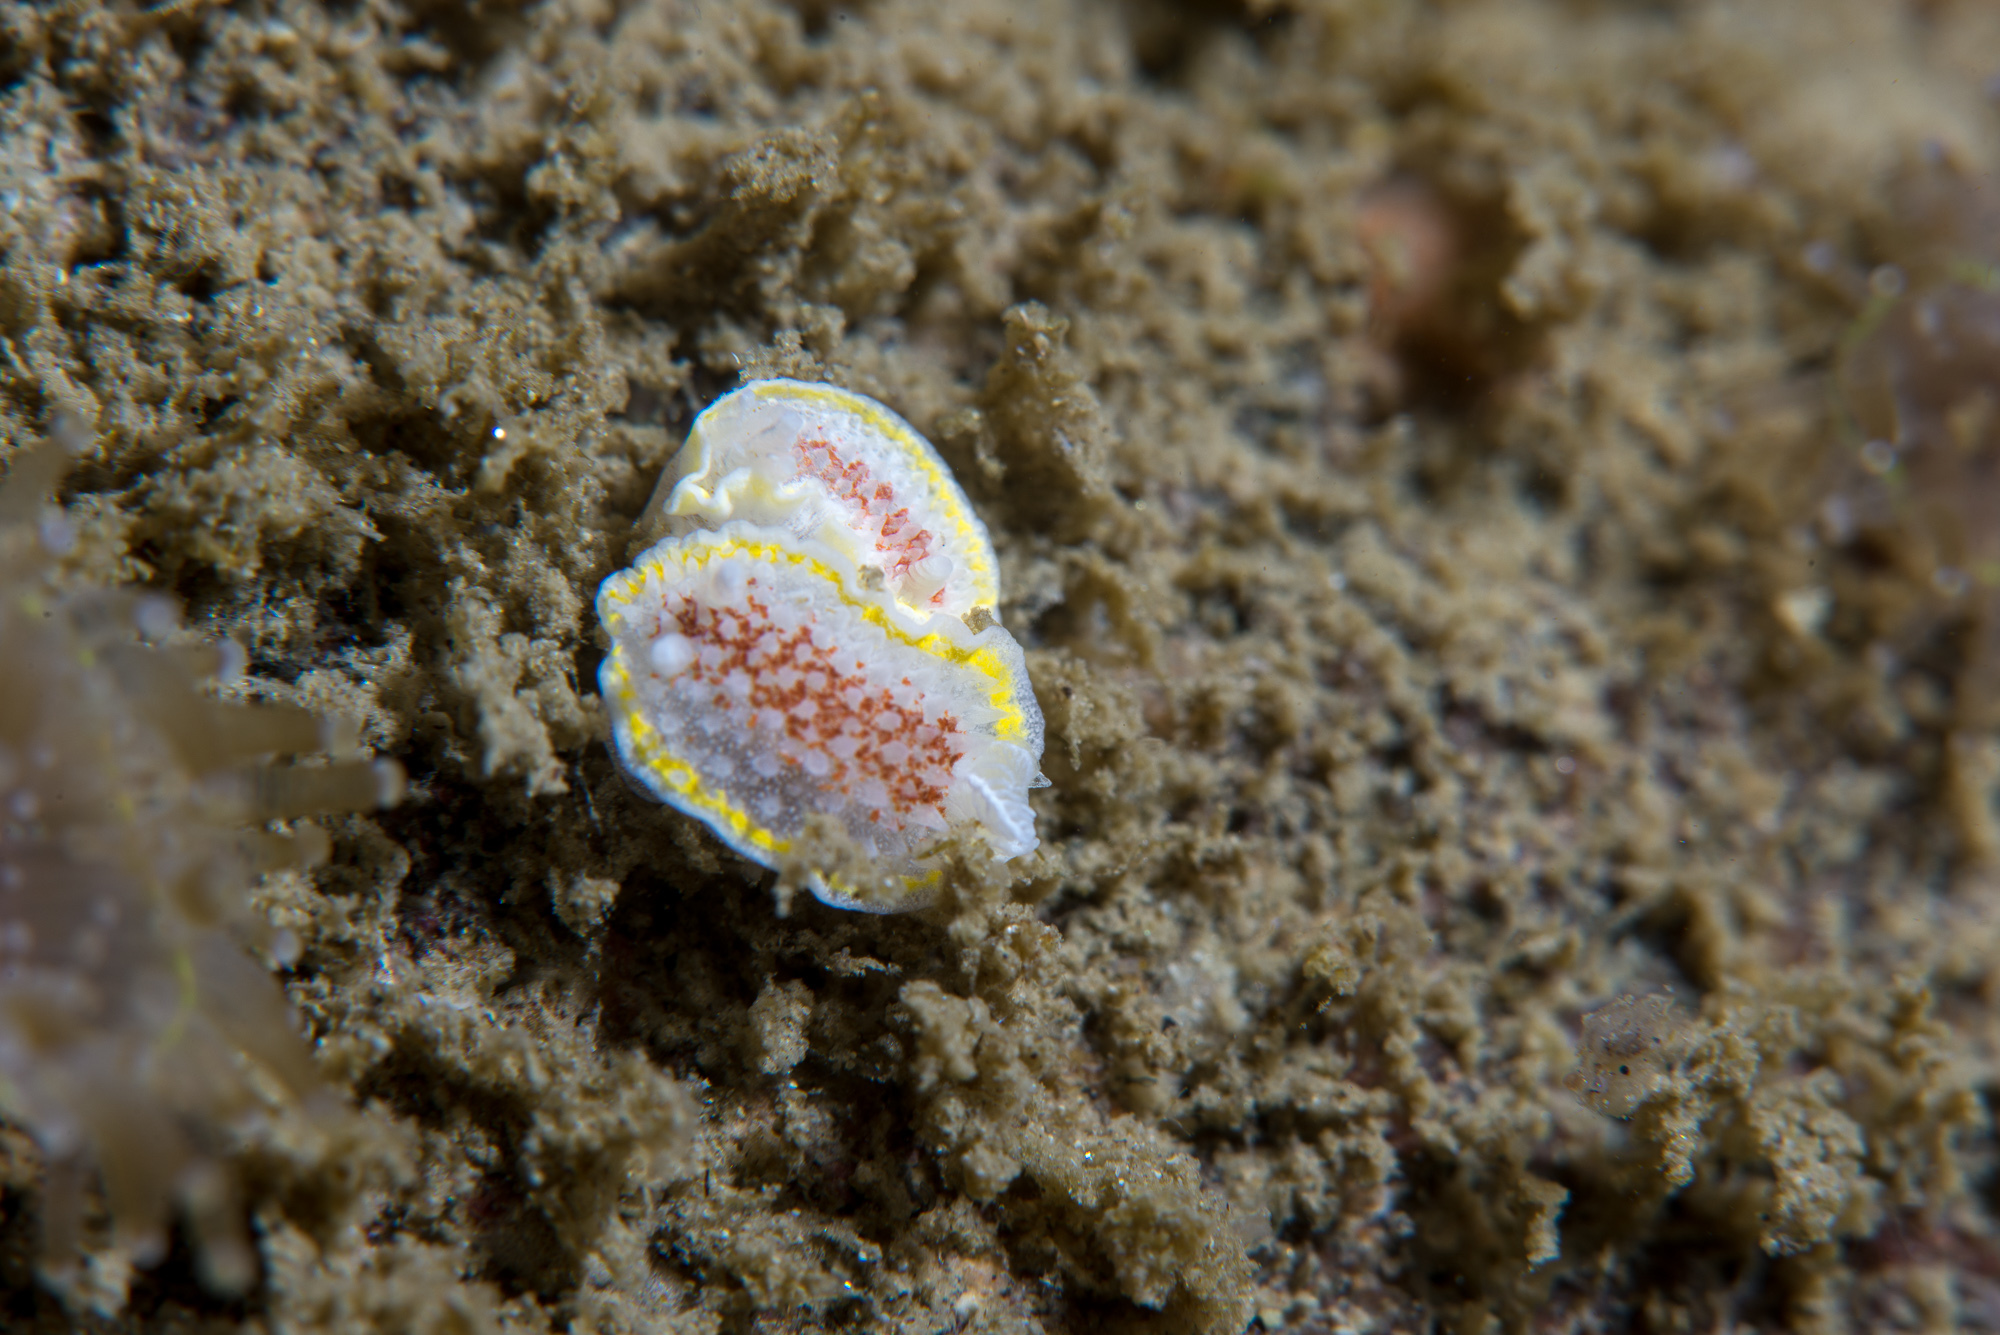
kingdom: Animalia
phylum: Mollusca
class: Gastropoda
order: Nudibranchia
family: Calycidorididae
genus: Diaphorodoris
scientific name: Diaphorodoris luteocincta
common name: Fried egg nudibranch
